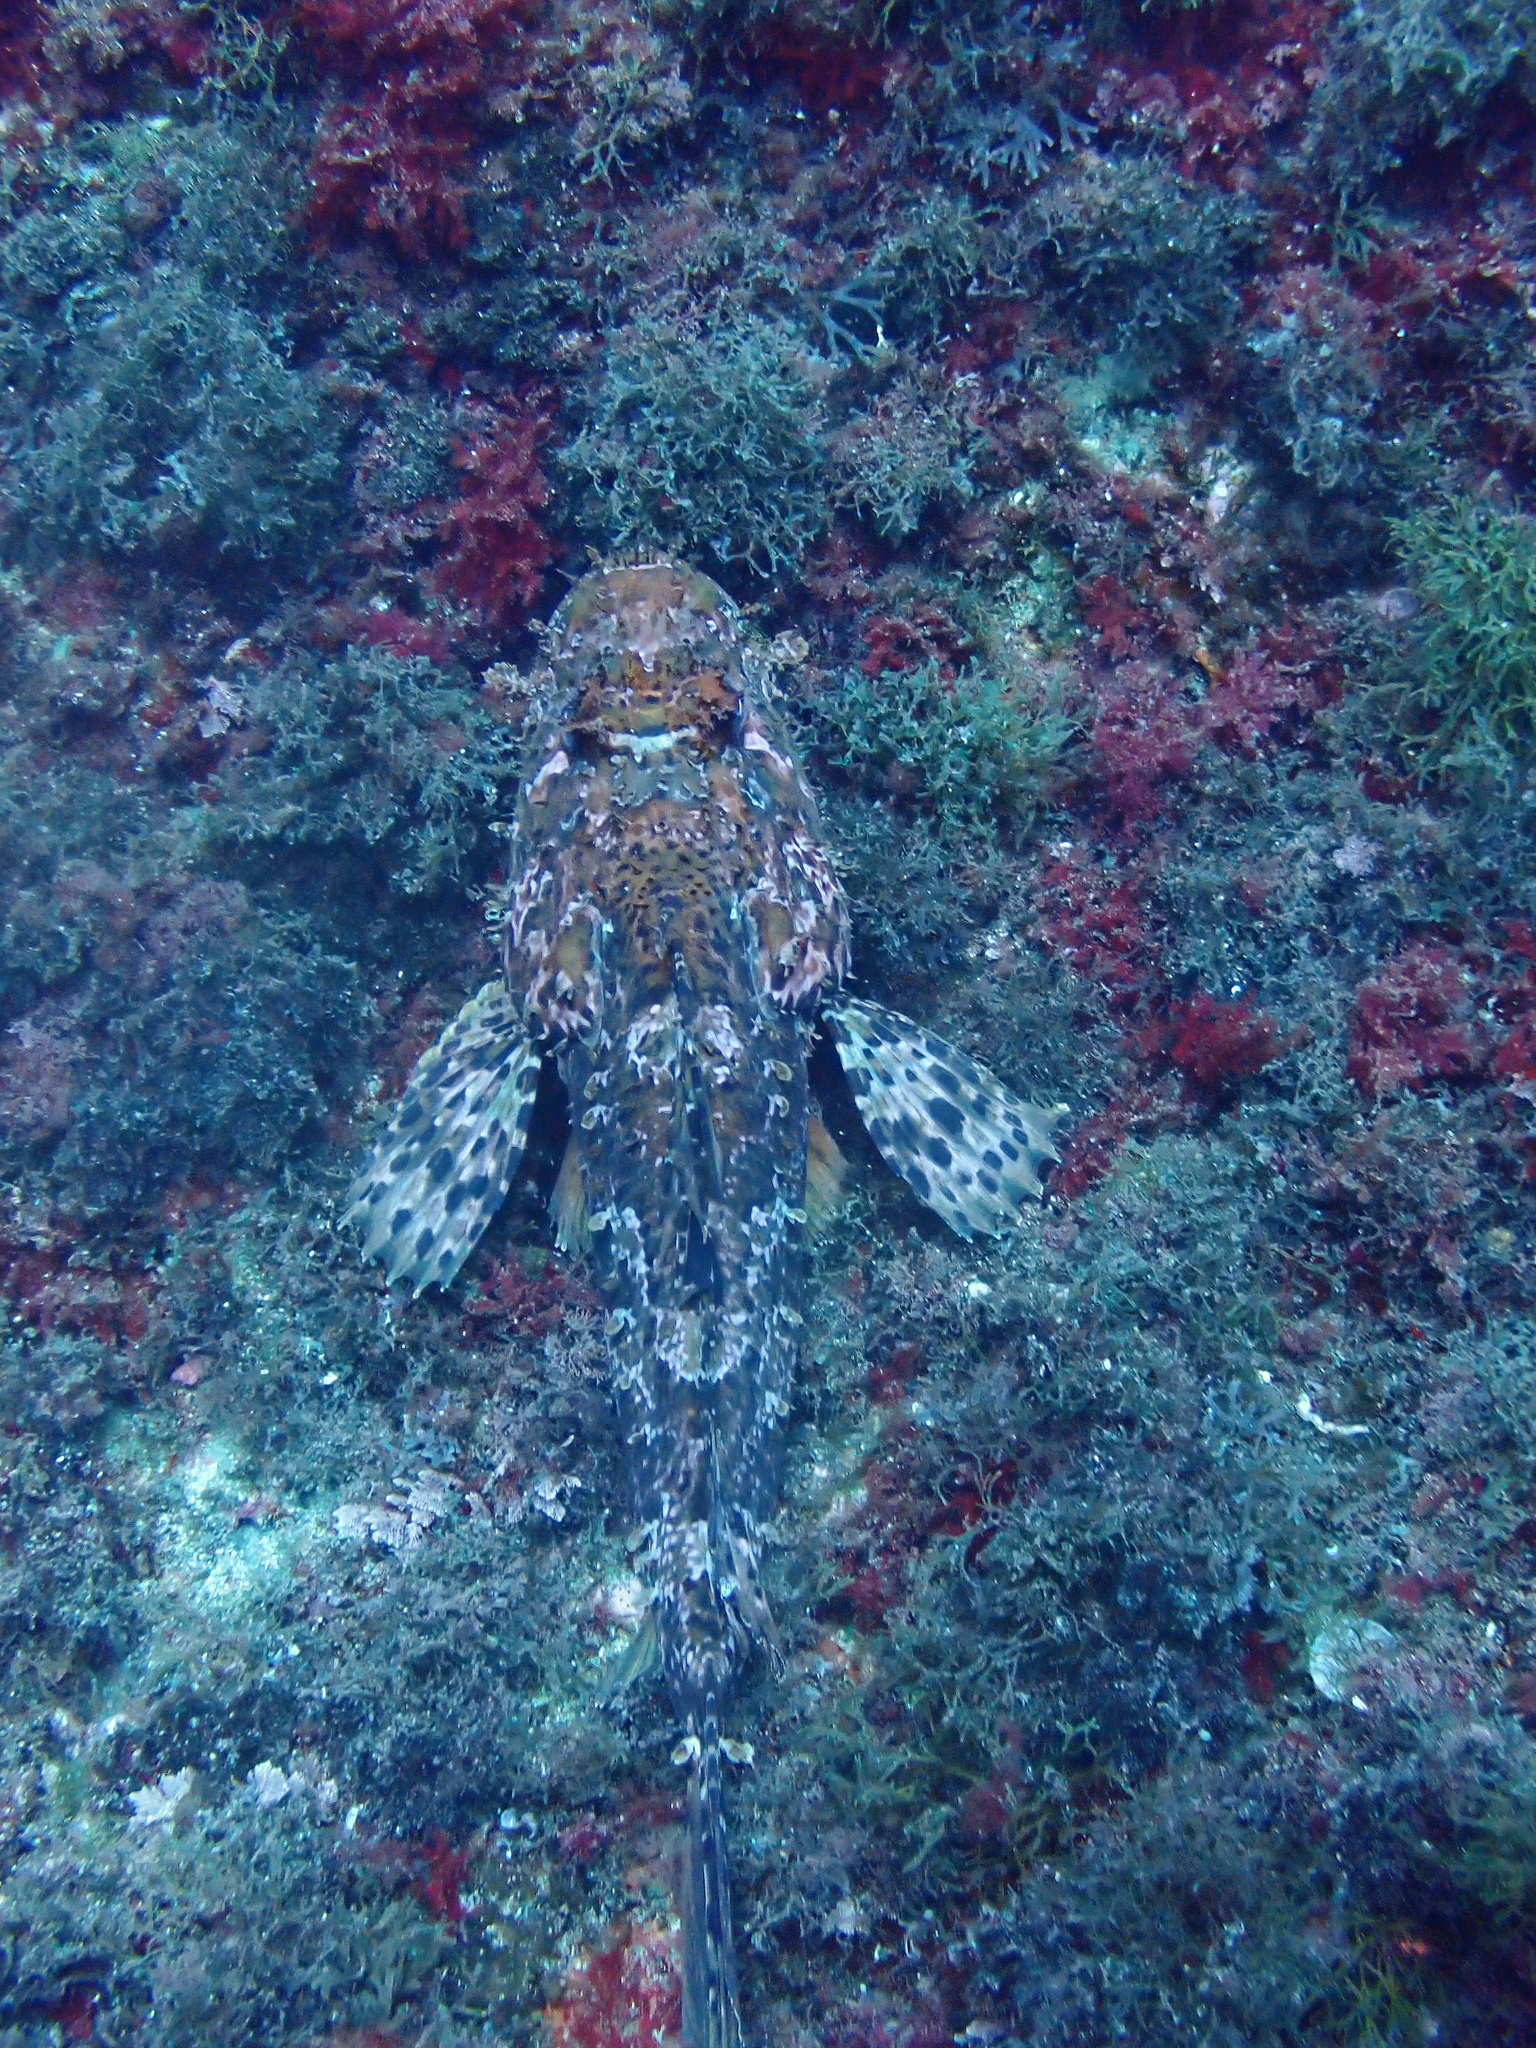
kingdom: Animalia
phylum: Chordata
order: Scorpaeniformes
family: Scorpaenidae
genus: Scorpaena
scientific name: Scorpaena scrofa
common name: Red scorpionfish
